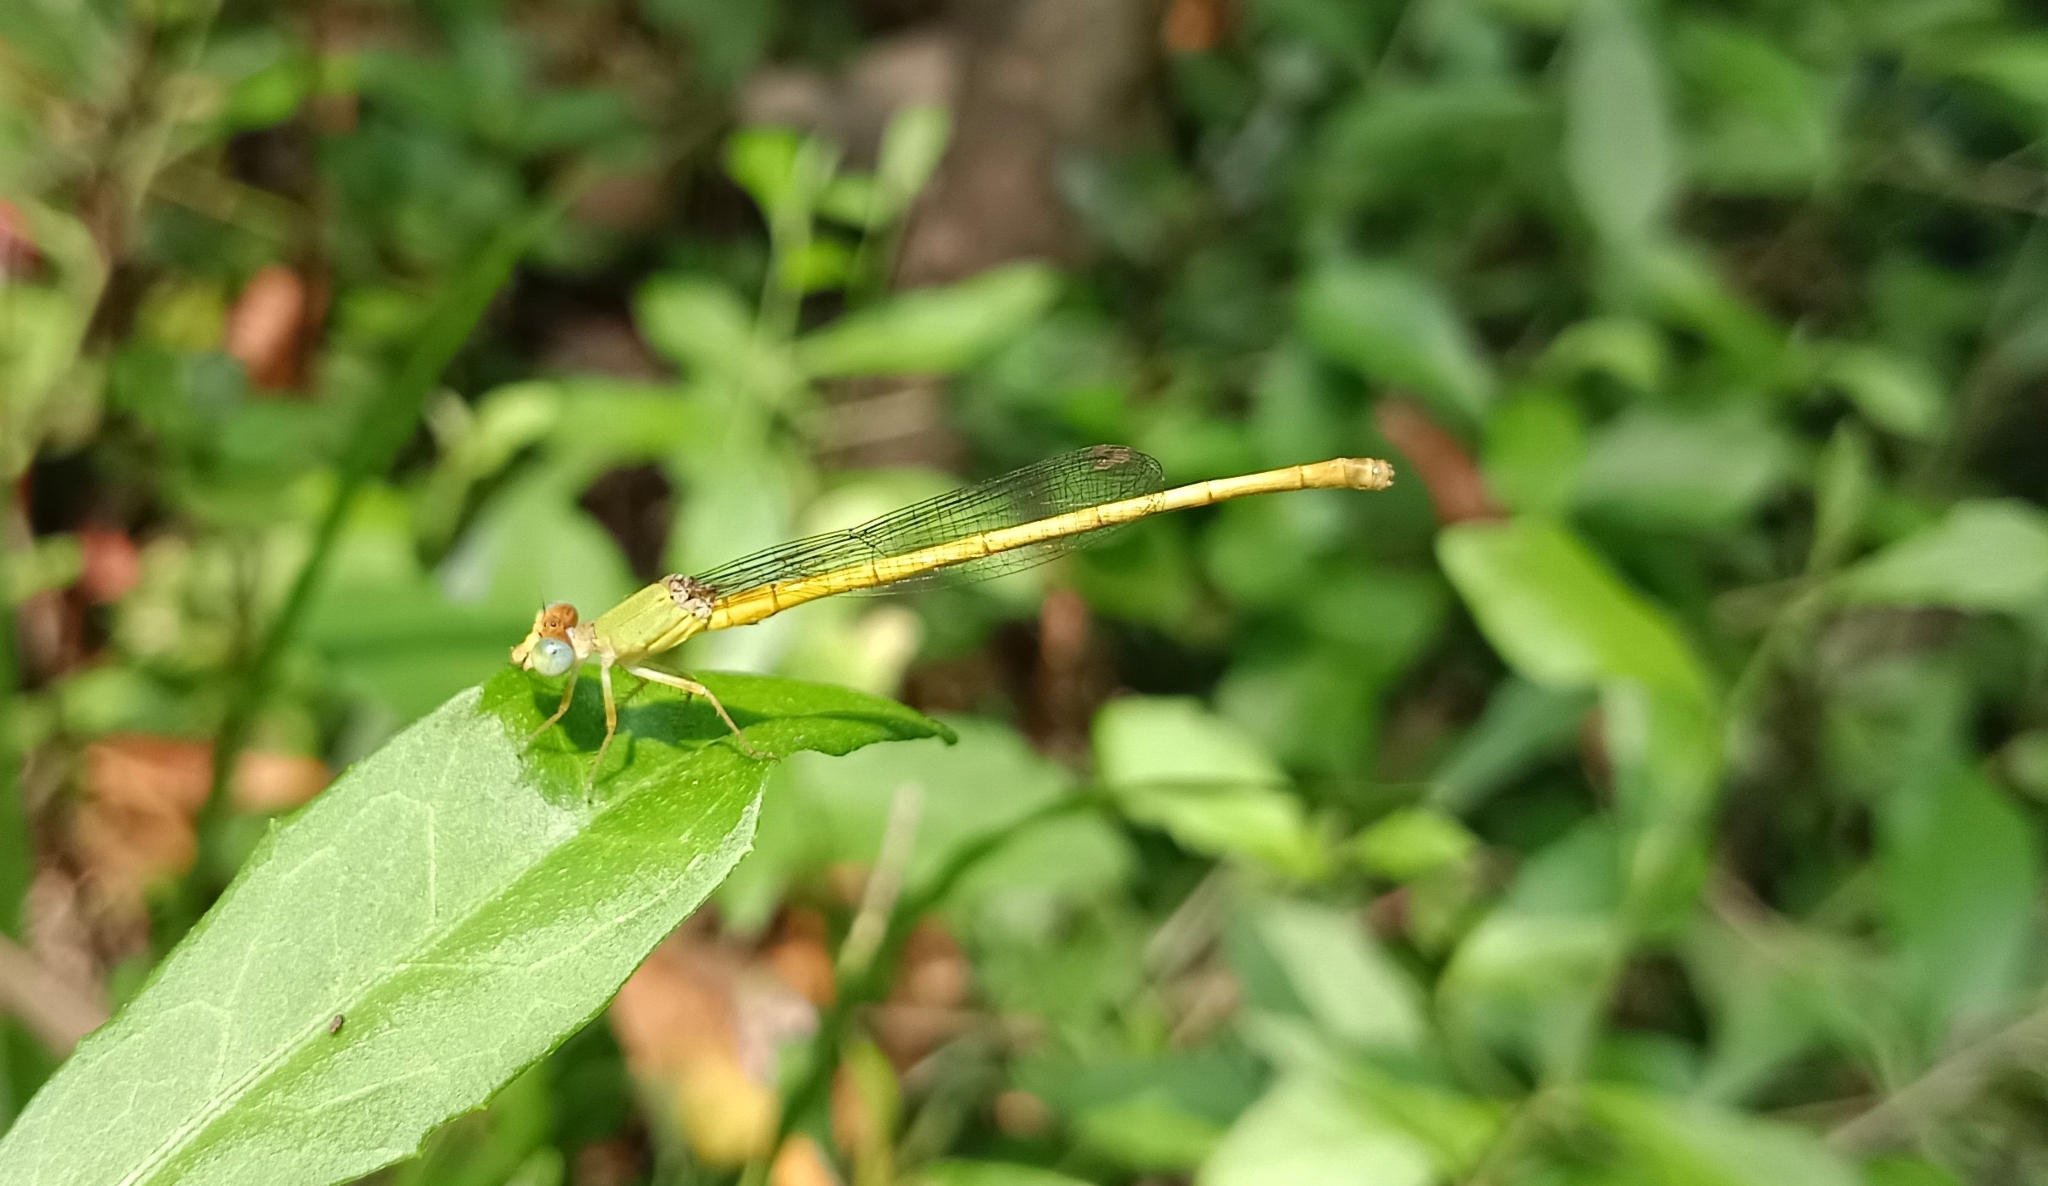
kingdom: Animalia
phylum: Arthropoda
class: Insecta
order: Odonata
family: Coenagrionidae
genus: Ceriagrion
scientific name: Ceriagrion coromandelianum
